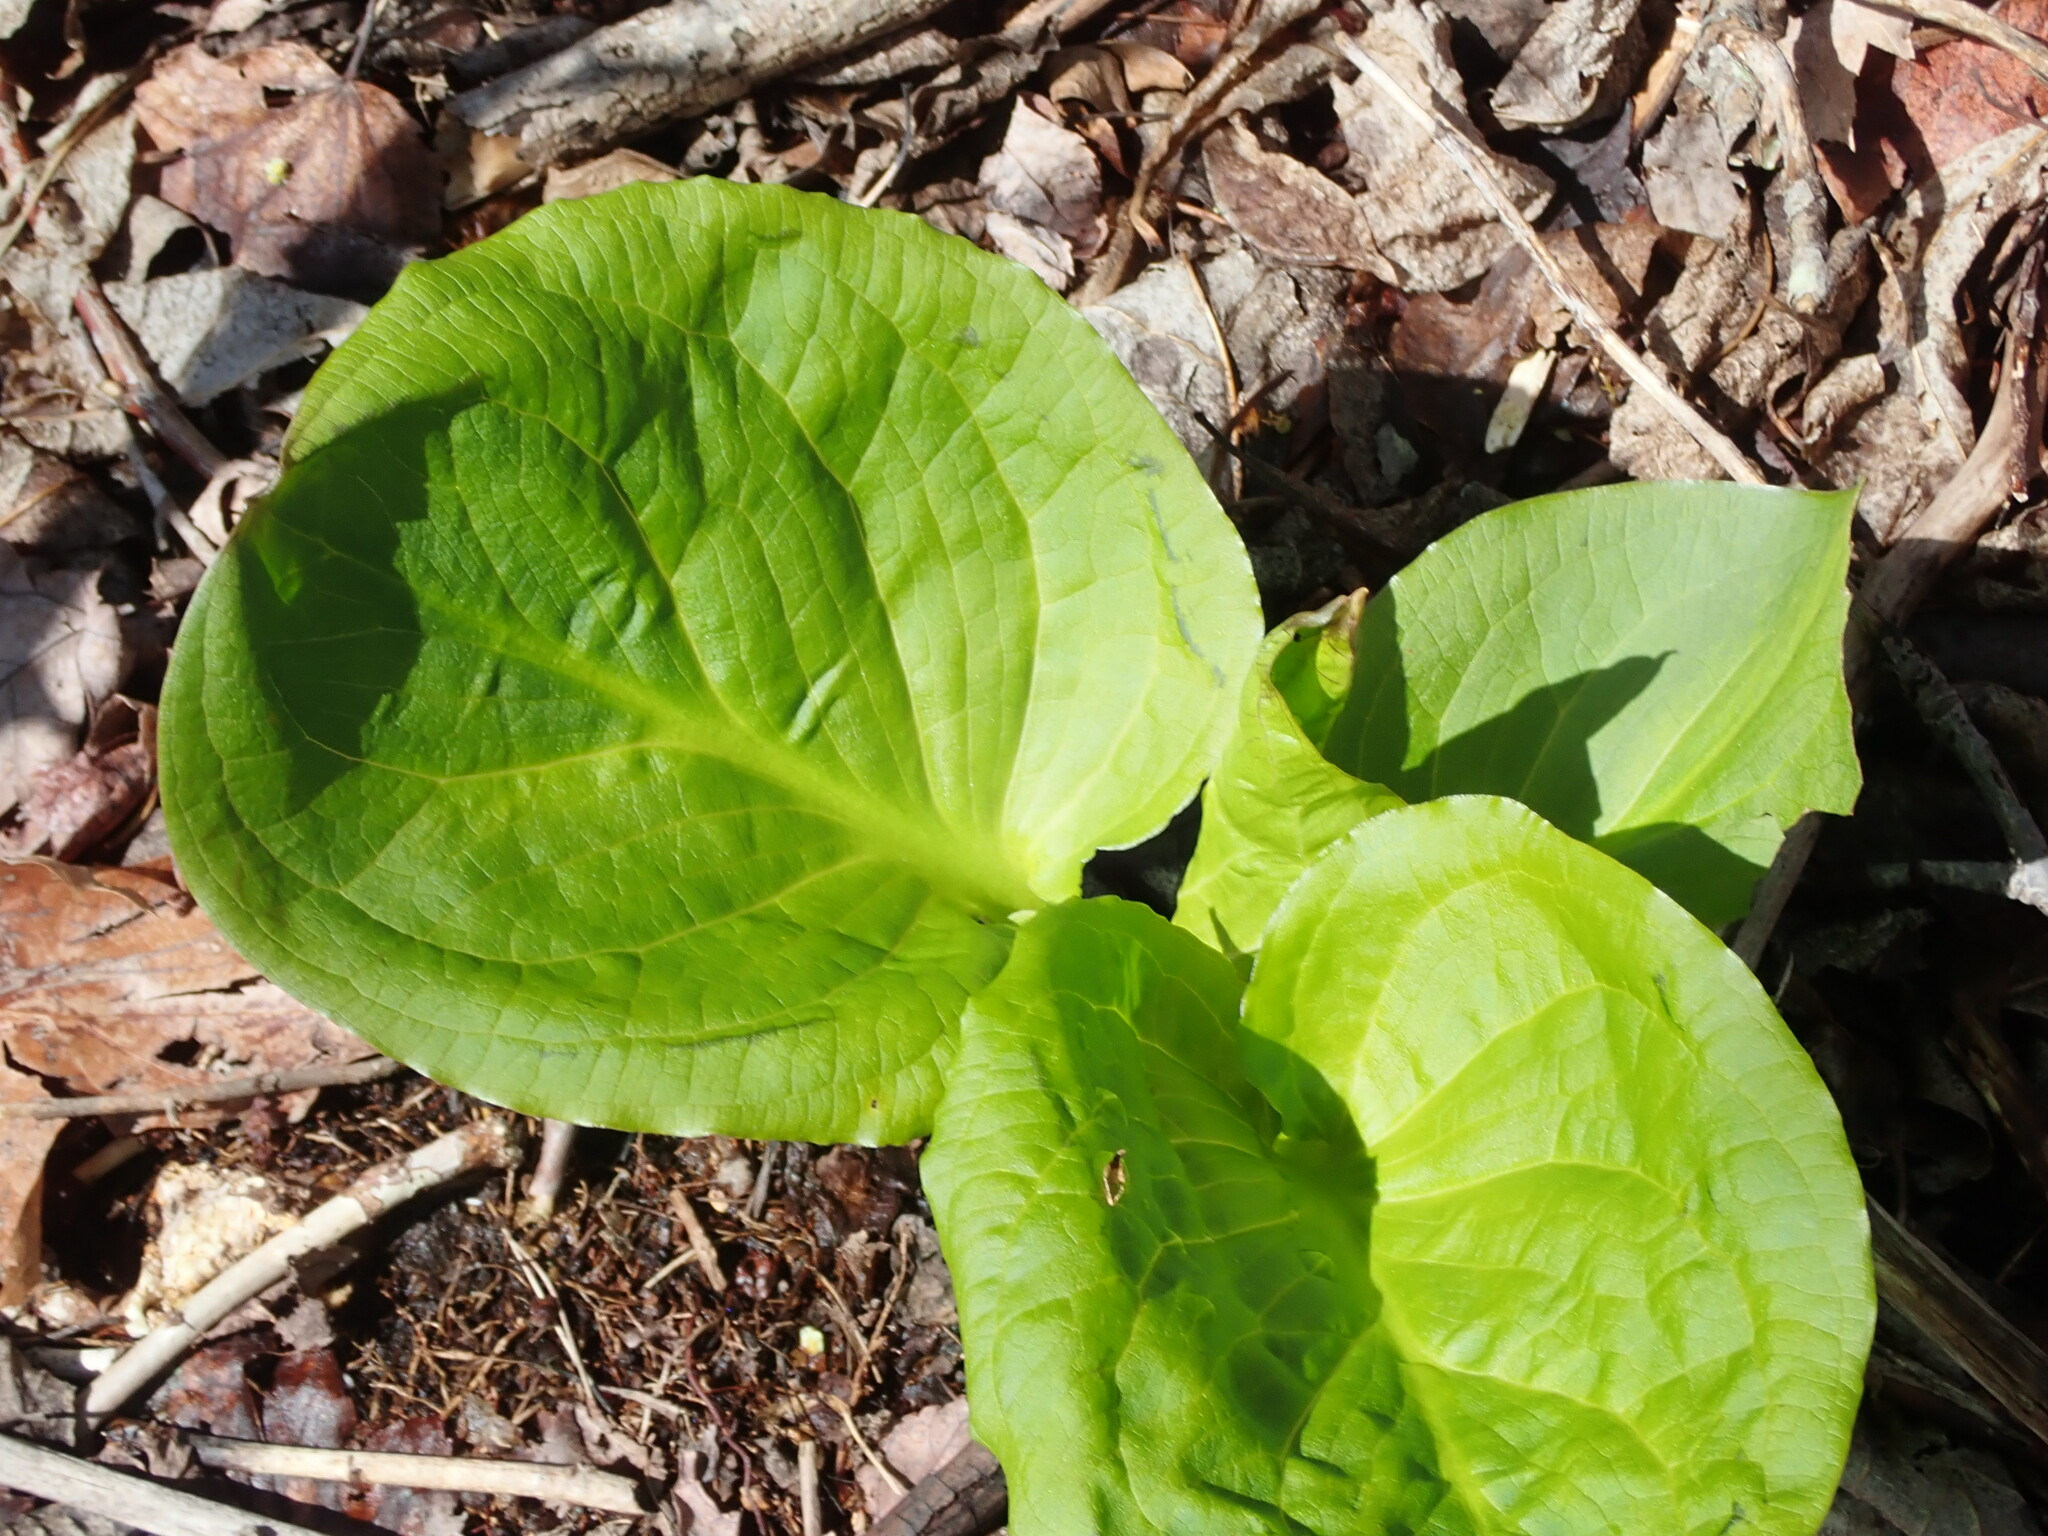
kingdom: Plantae
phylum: Tracheophyta
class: Liliopsida
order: Alismatales
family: Araceae
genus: Symplocarpus
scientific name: Symplocarpus foetidus
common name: Eastern skunk cabbage
